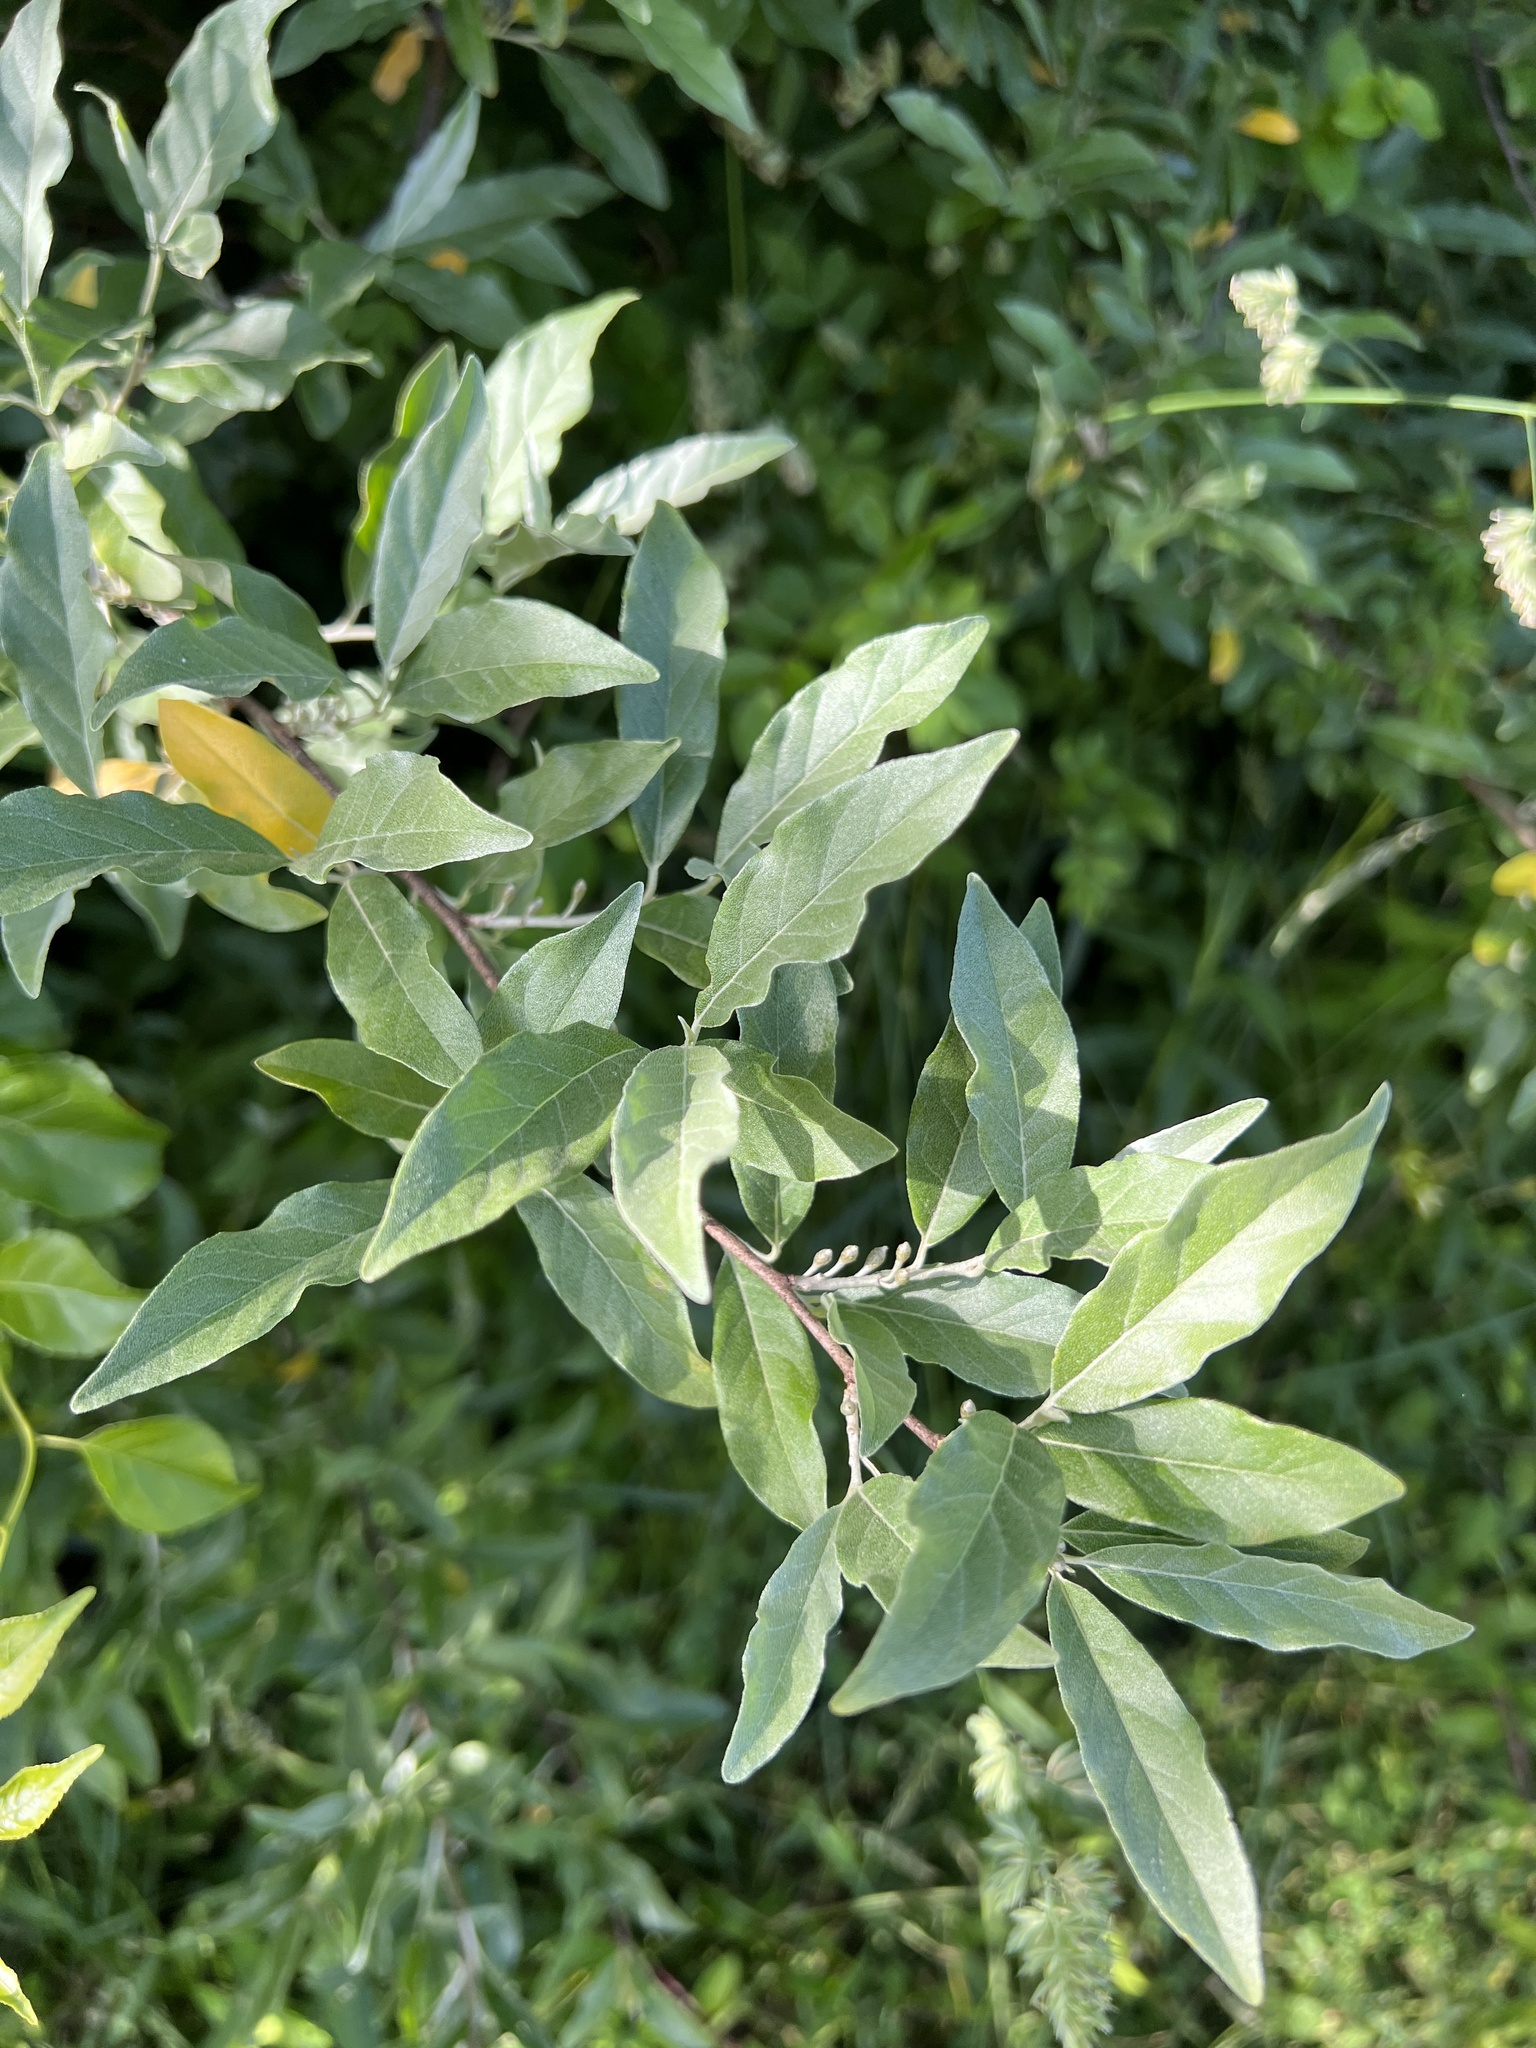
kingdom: Plantae
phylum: Tracheophyta
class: Magnoliopsida
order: Rosales
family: Elaeagnaceae
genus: Elaeagnus
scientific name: Elaeagnus umbellata
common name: Autumn olive
